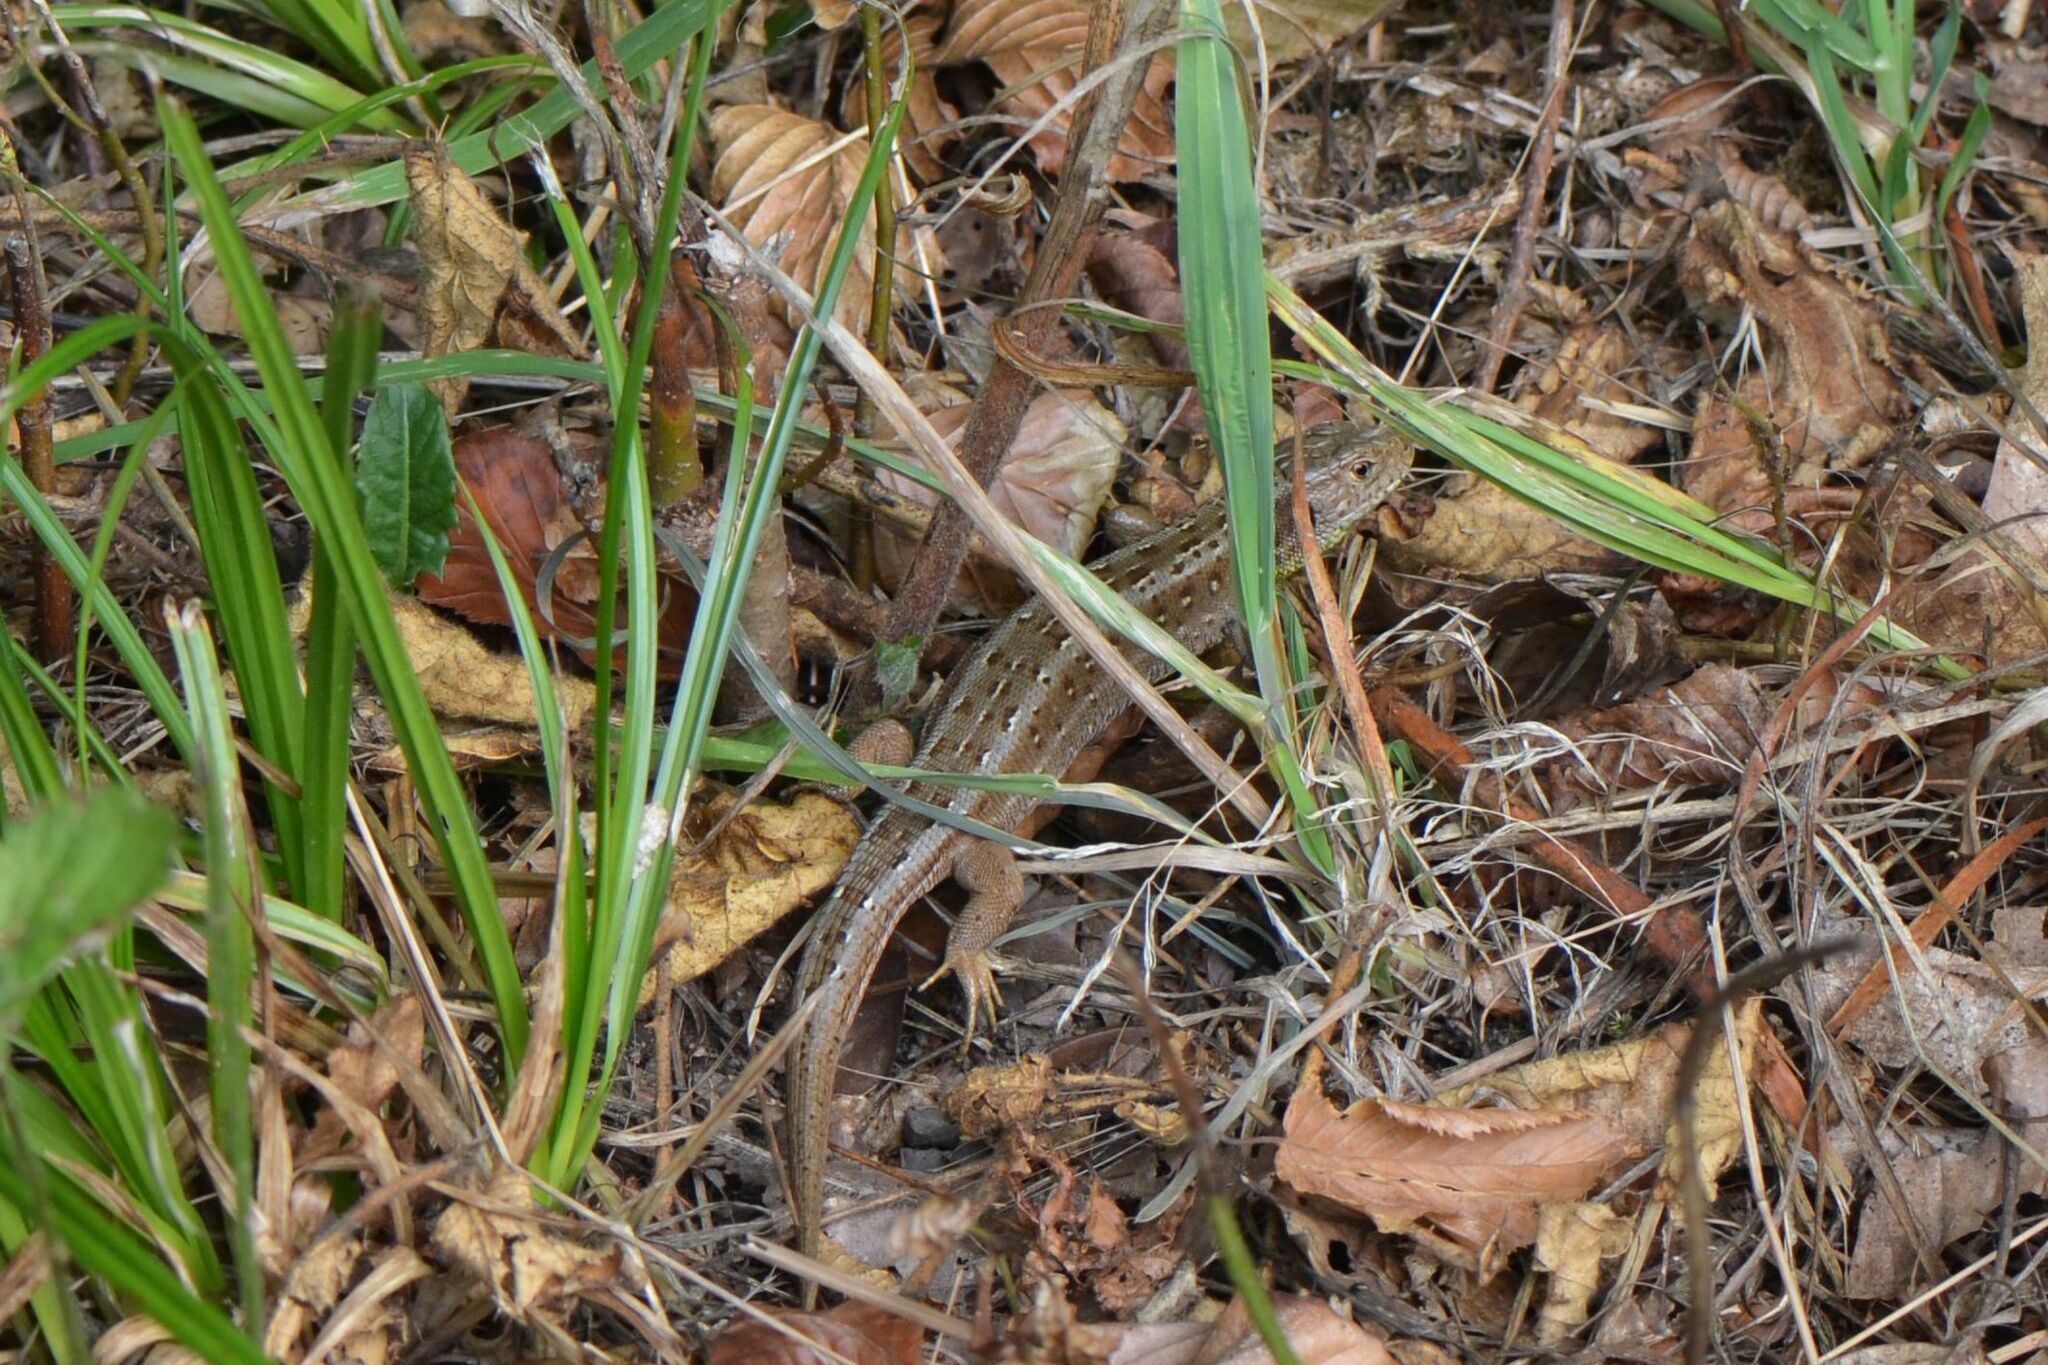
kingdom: Animalia
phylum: Chordata
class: Squamata
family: Lacertidae
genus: Lacerta
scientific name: Lacerta agilis
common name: Sand lizard
